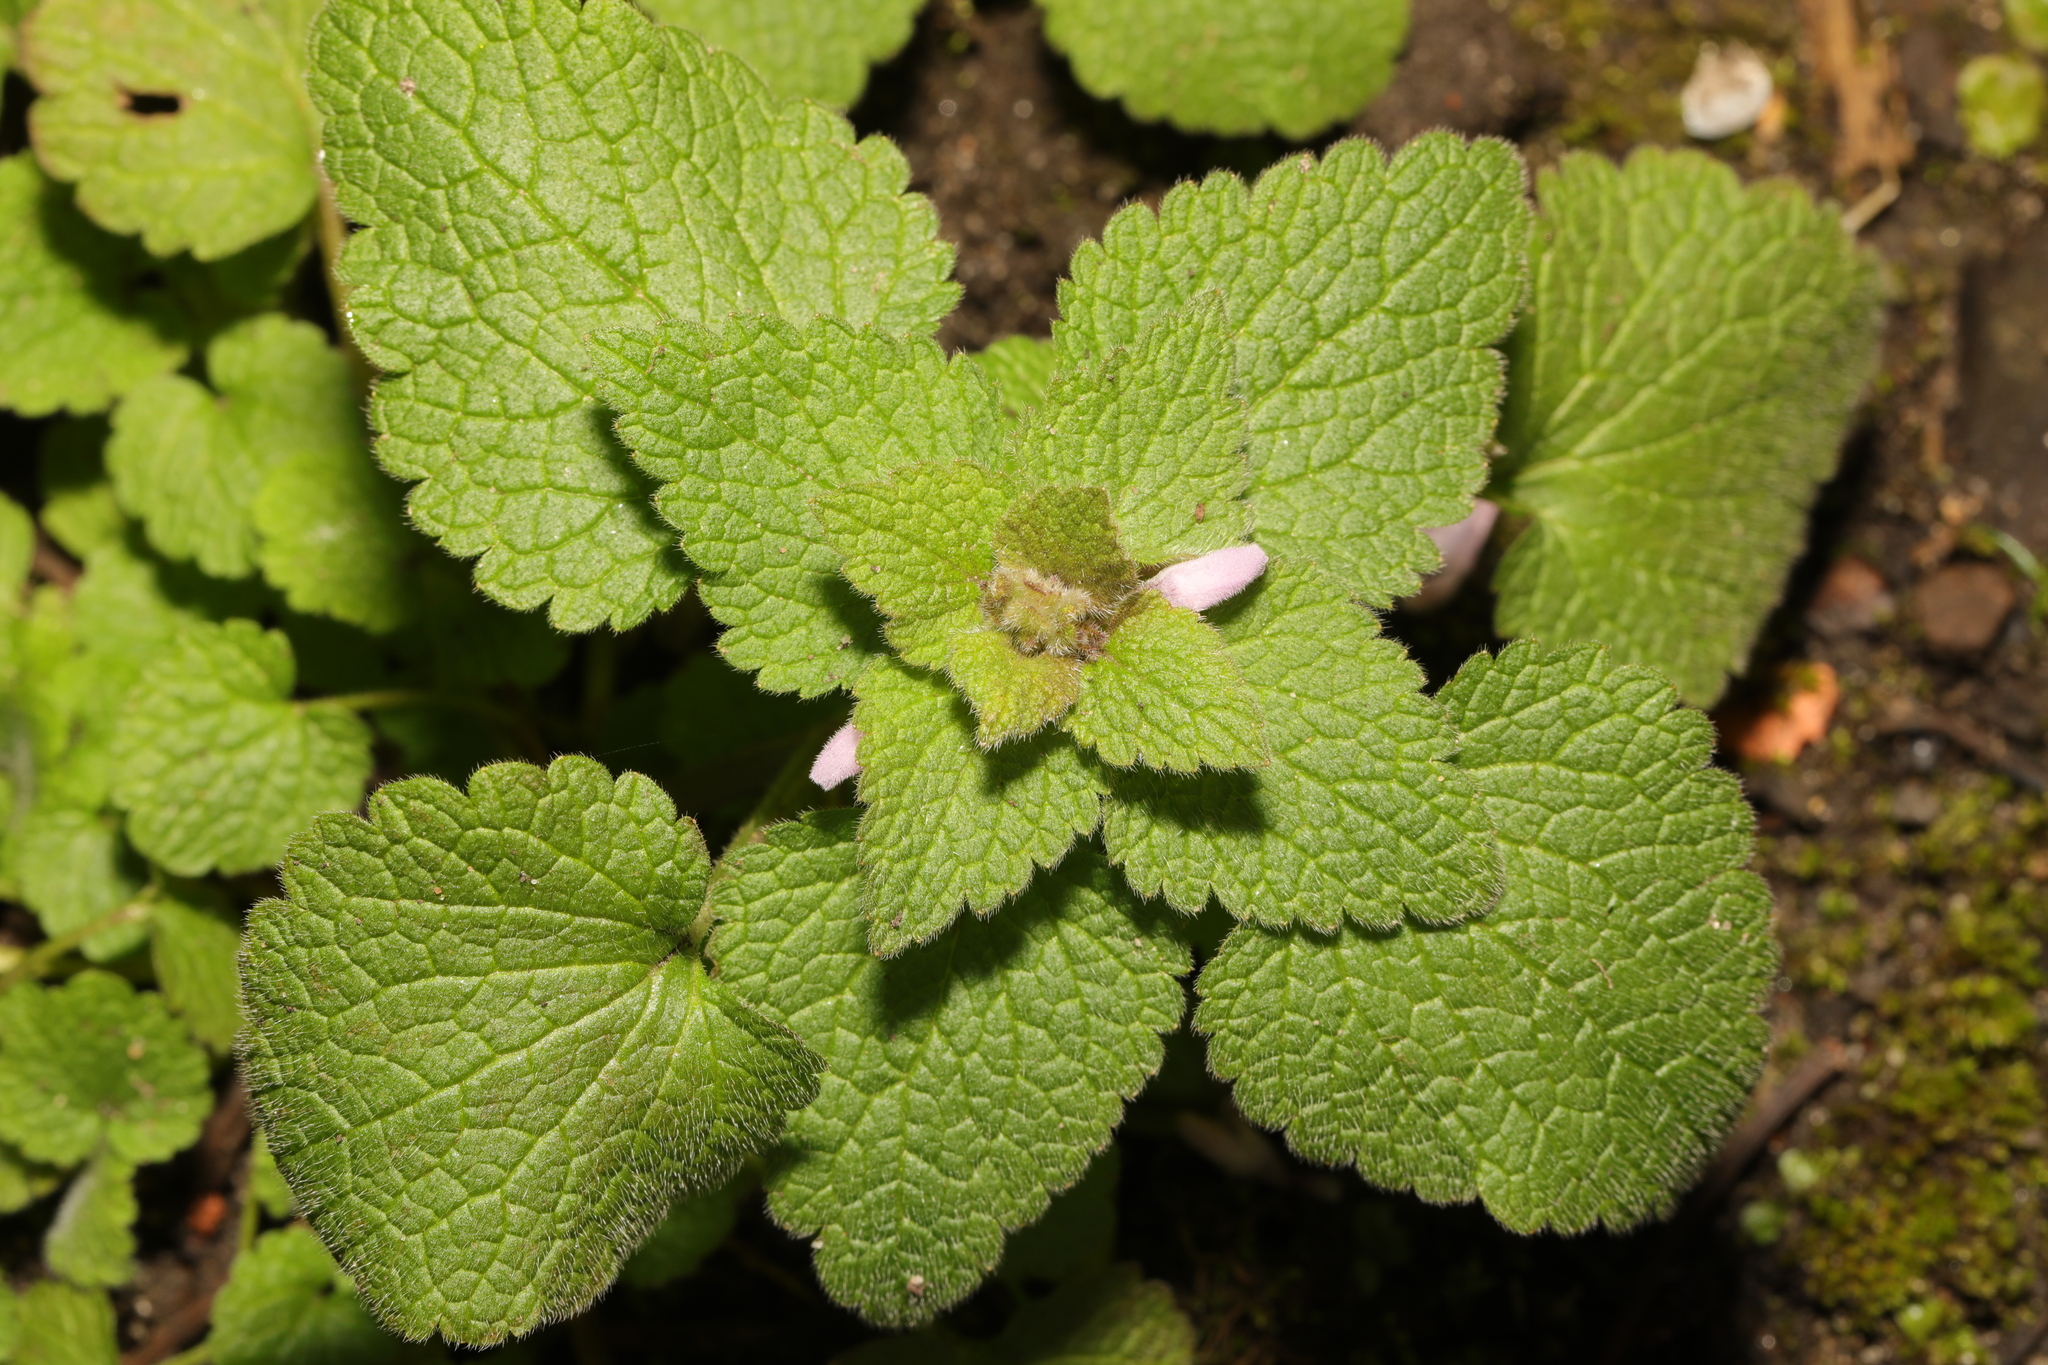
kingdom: Plantae
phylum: Tracheophyta
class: Magnoliopsida
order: Lamiales
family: Lamiaceae
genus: Lamium
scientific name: Lamium purpureum
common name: Red dead-nettle
